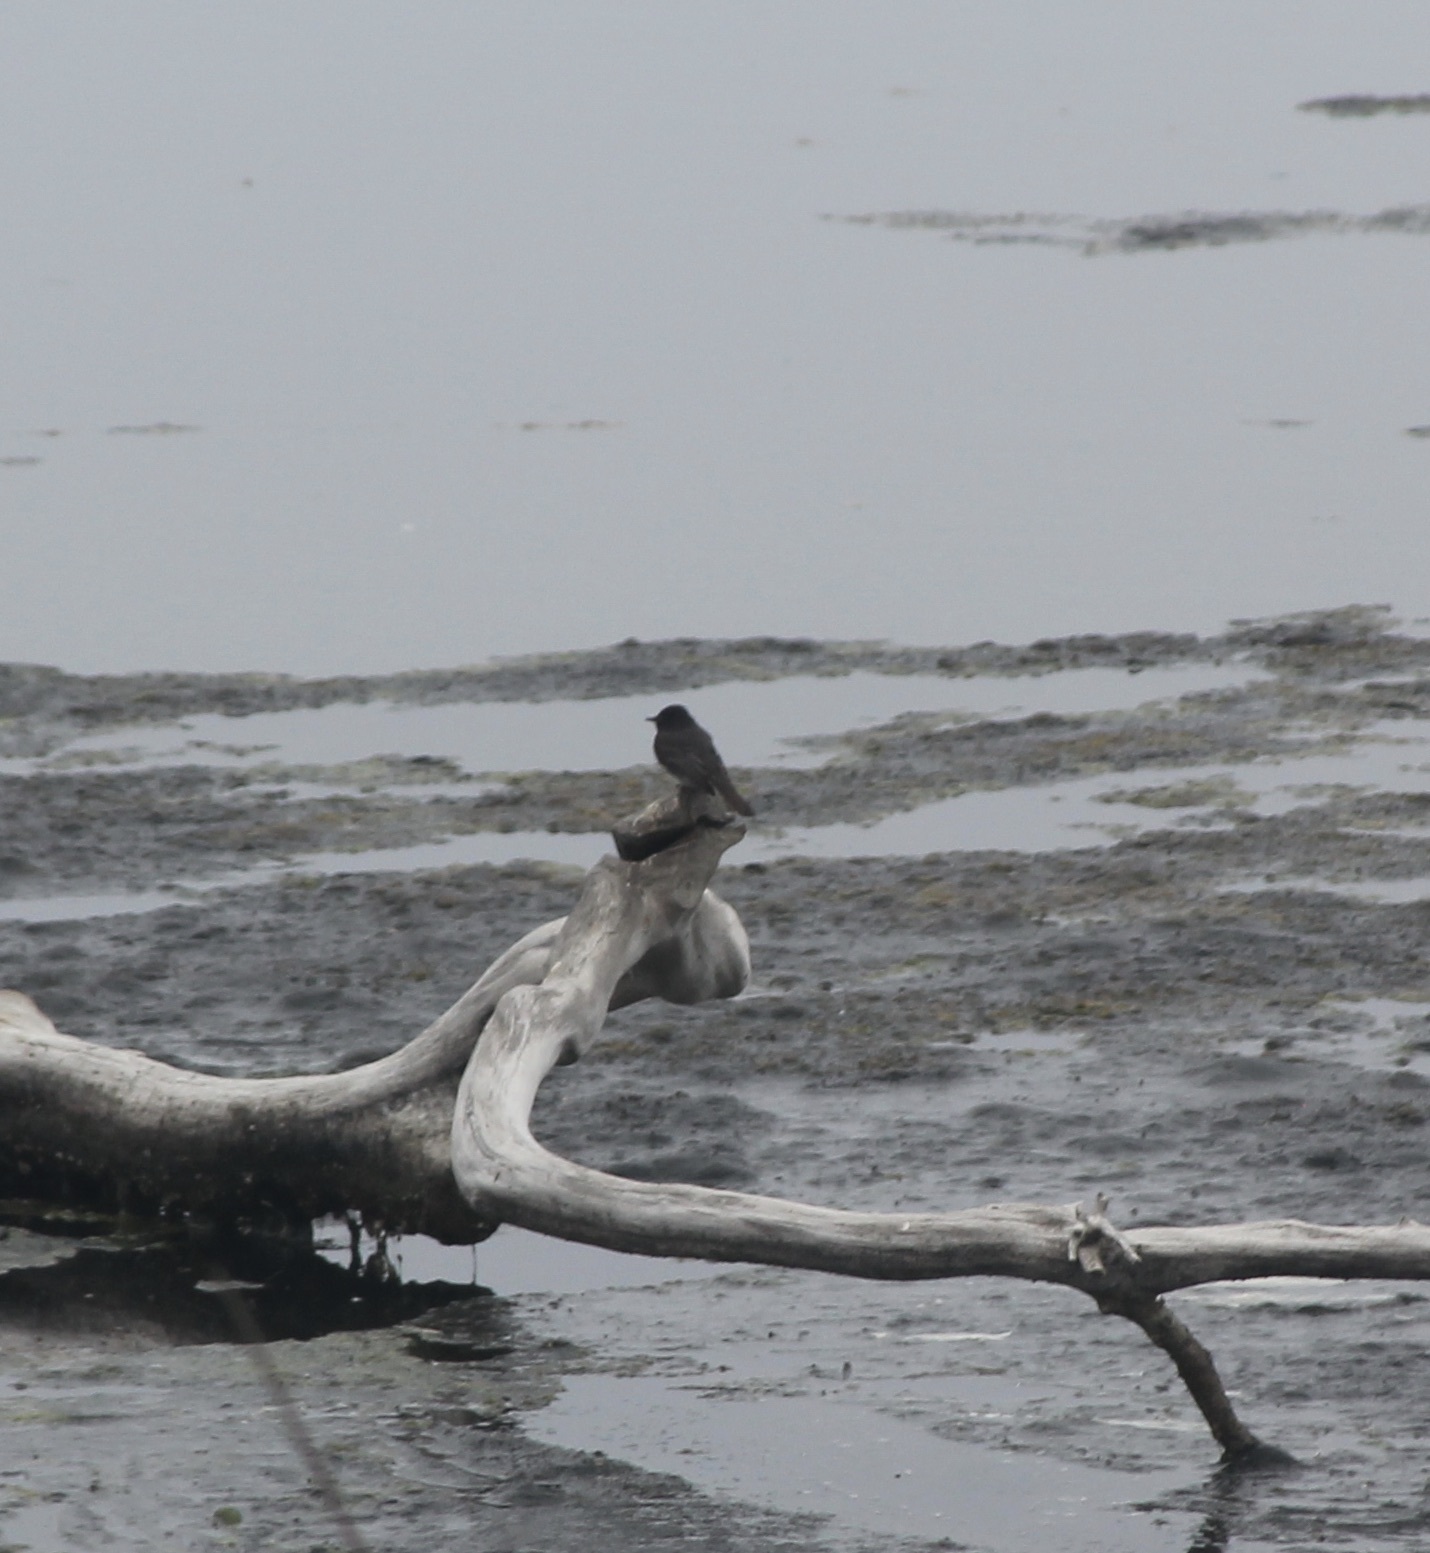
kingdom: Animalia
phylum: Chordata
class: Aves
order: Passeriformes
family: Tyrannidae
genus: Sayornis
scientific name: Sayornis nigricans
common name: Black phoebe
